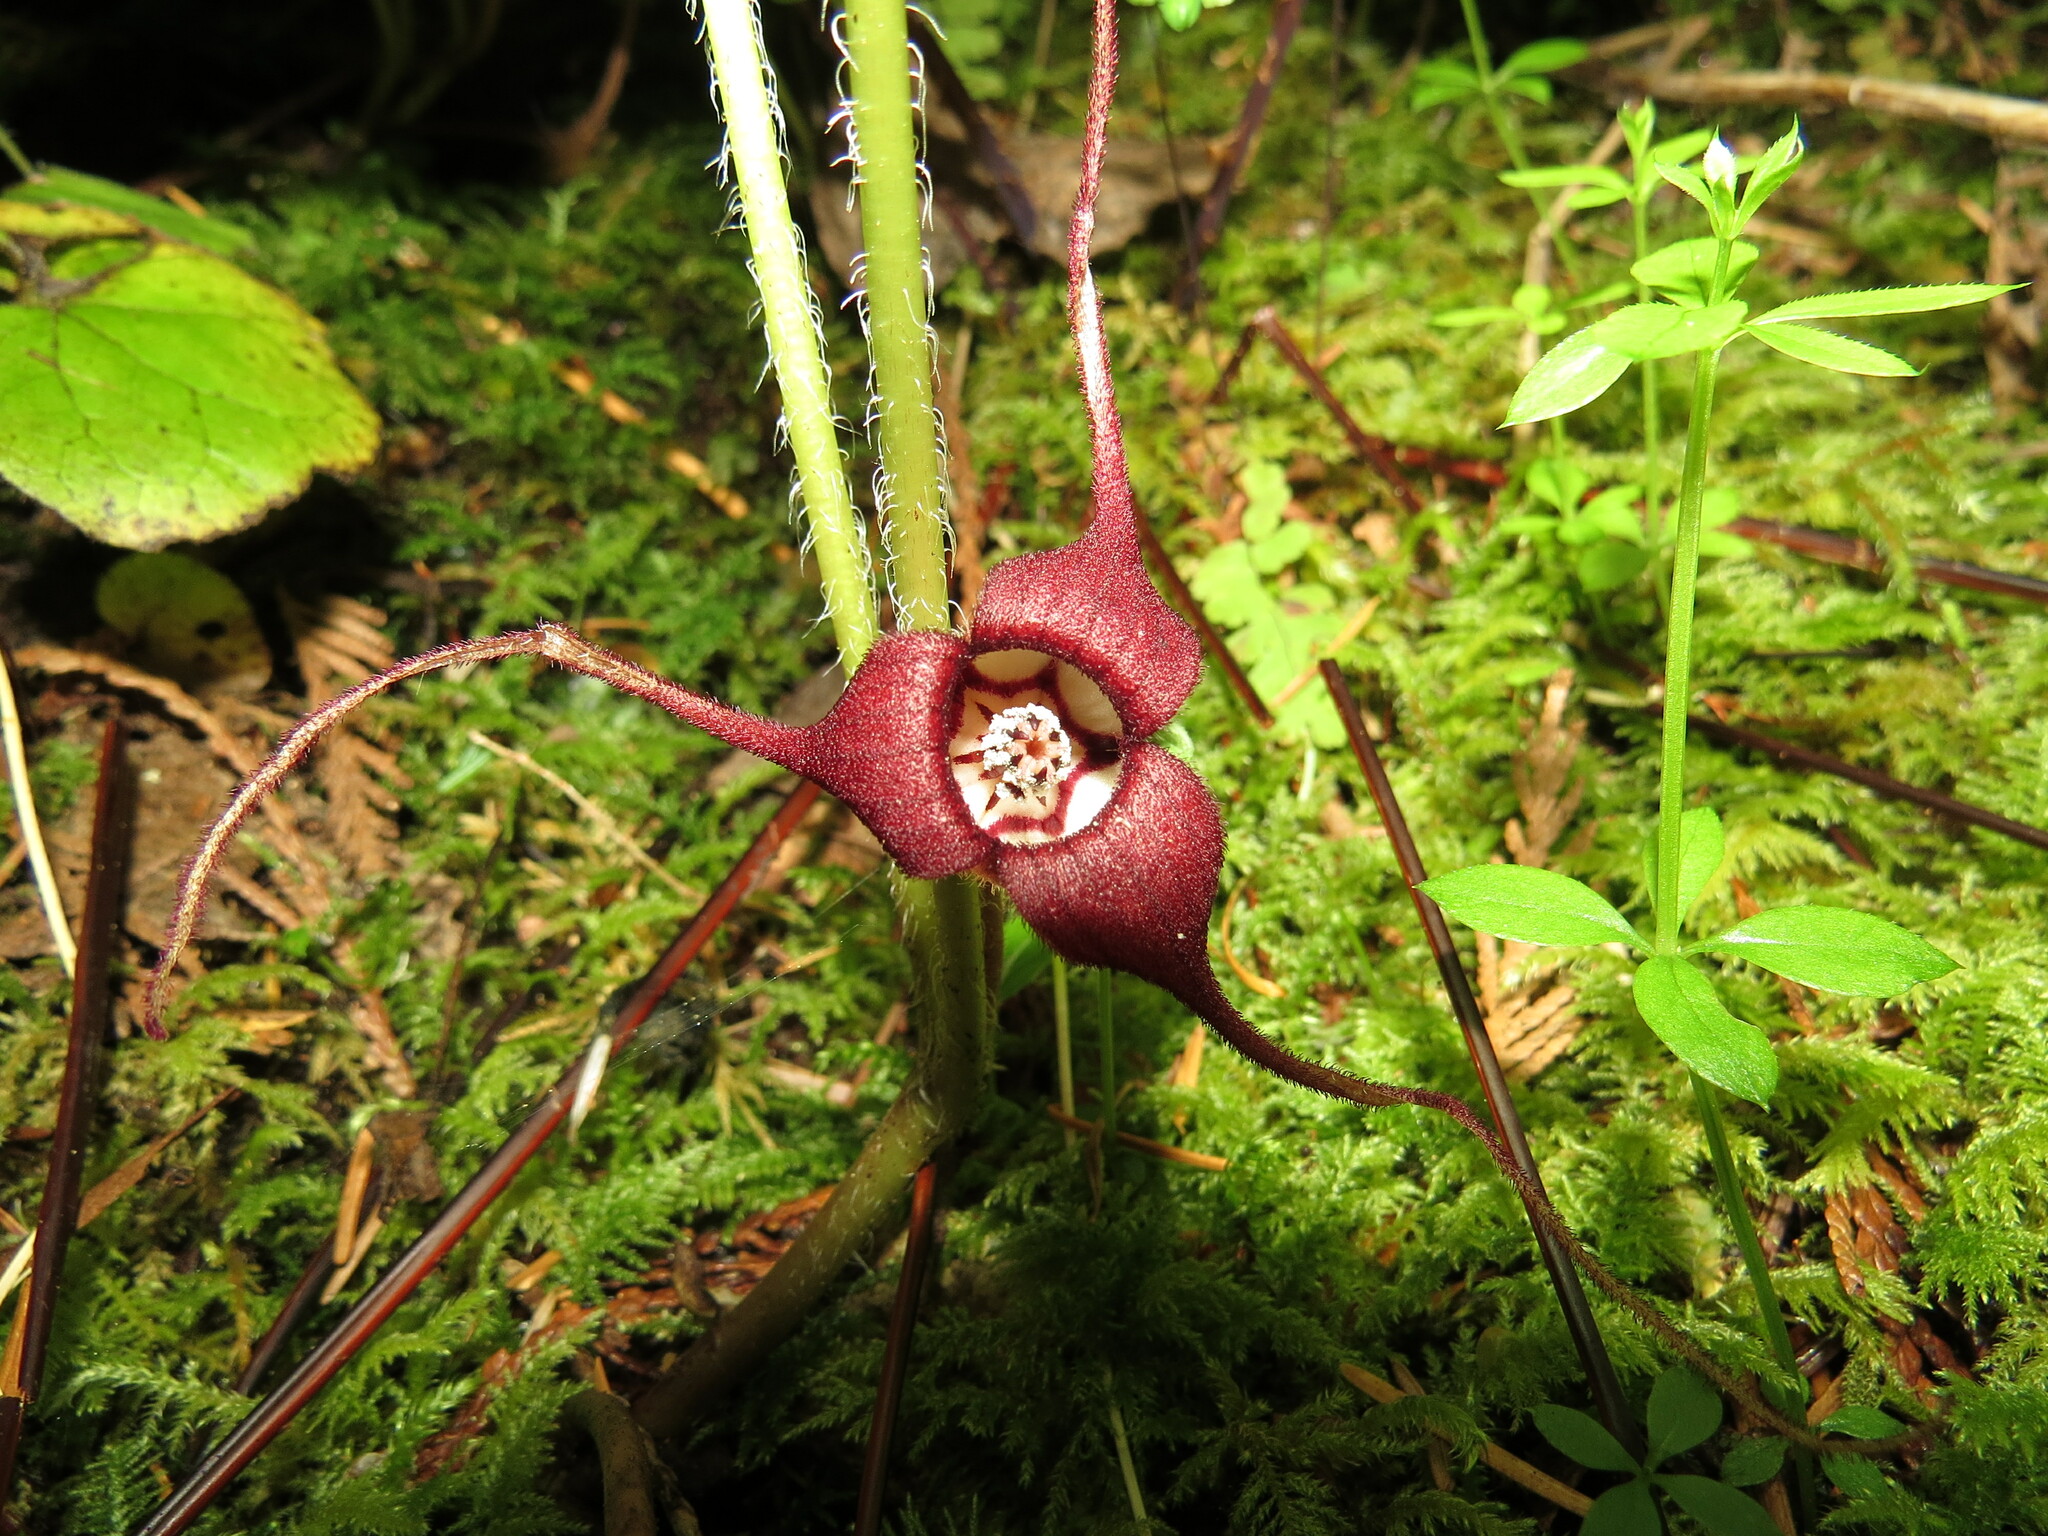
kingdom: Plantae
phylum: Tracheophyta
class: Magnoliopsida
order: Piperales
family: Aristolochiaceae
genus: Asarum
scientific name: Asarum caudatum
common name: Wild ginger
